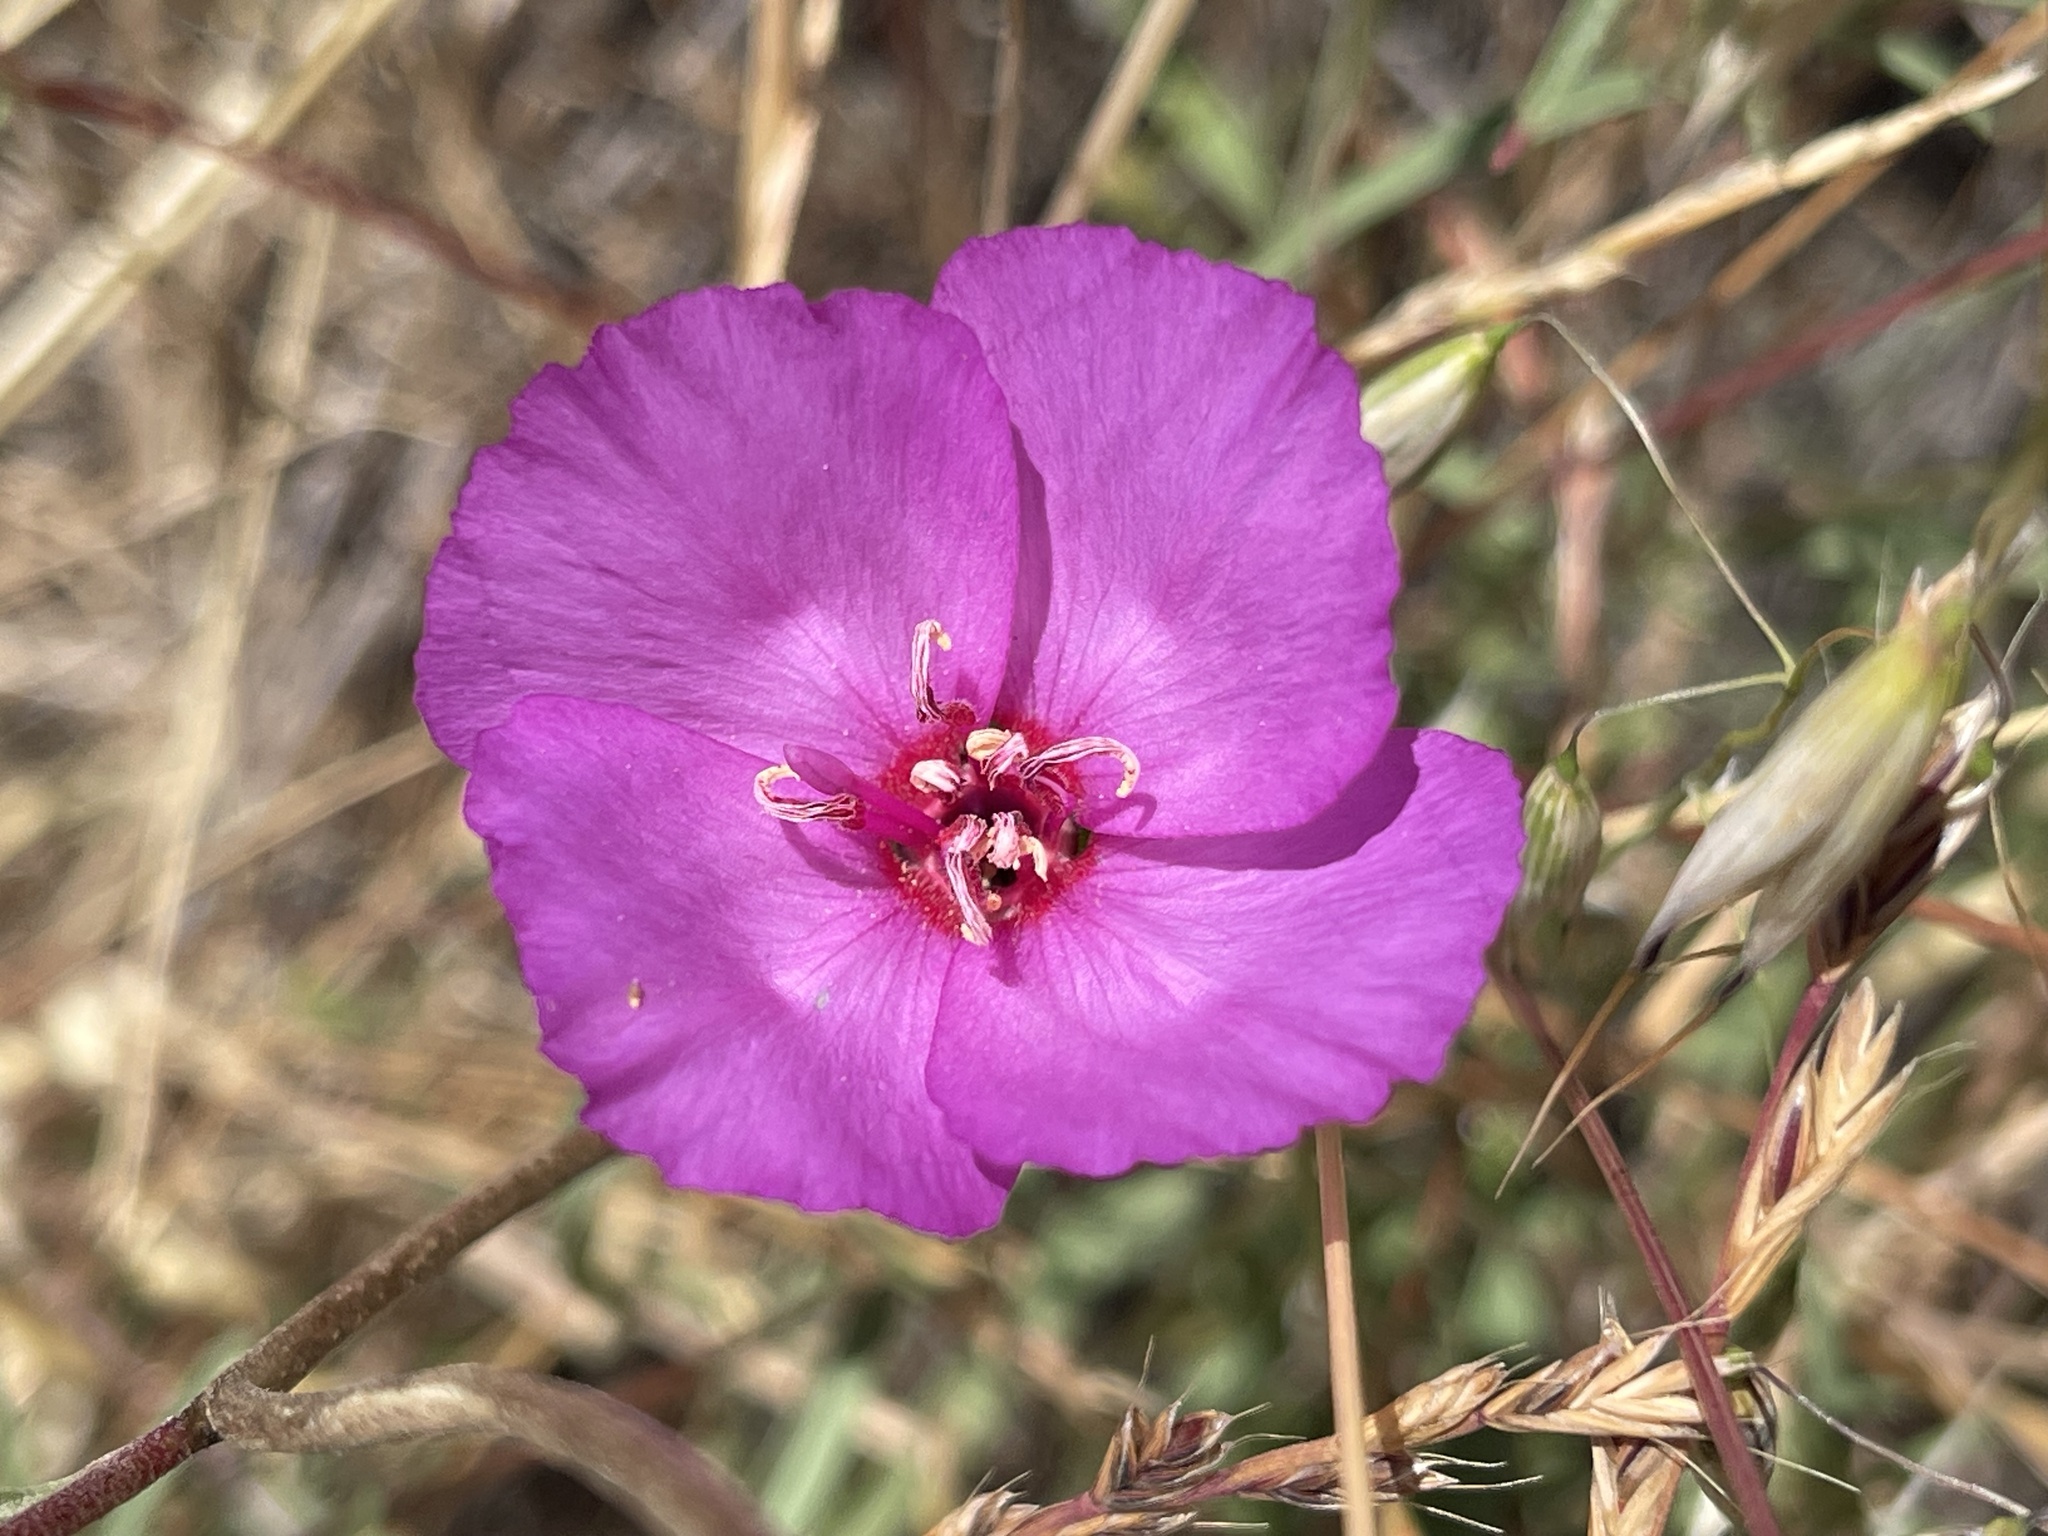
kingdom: Plantae
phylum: Tracheophyta
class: Magnoliopsida
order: Myrtales
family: Onagraceae
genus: Clarkia
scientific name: Clarkia rubicunda
